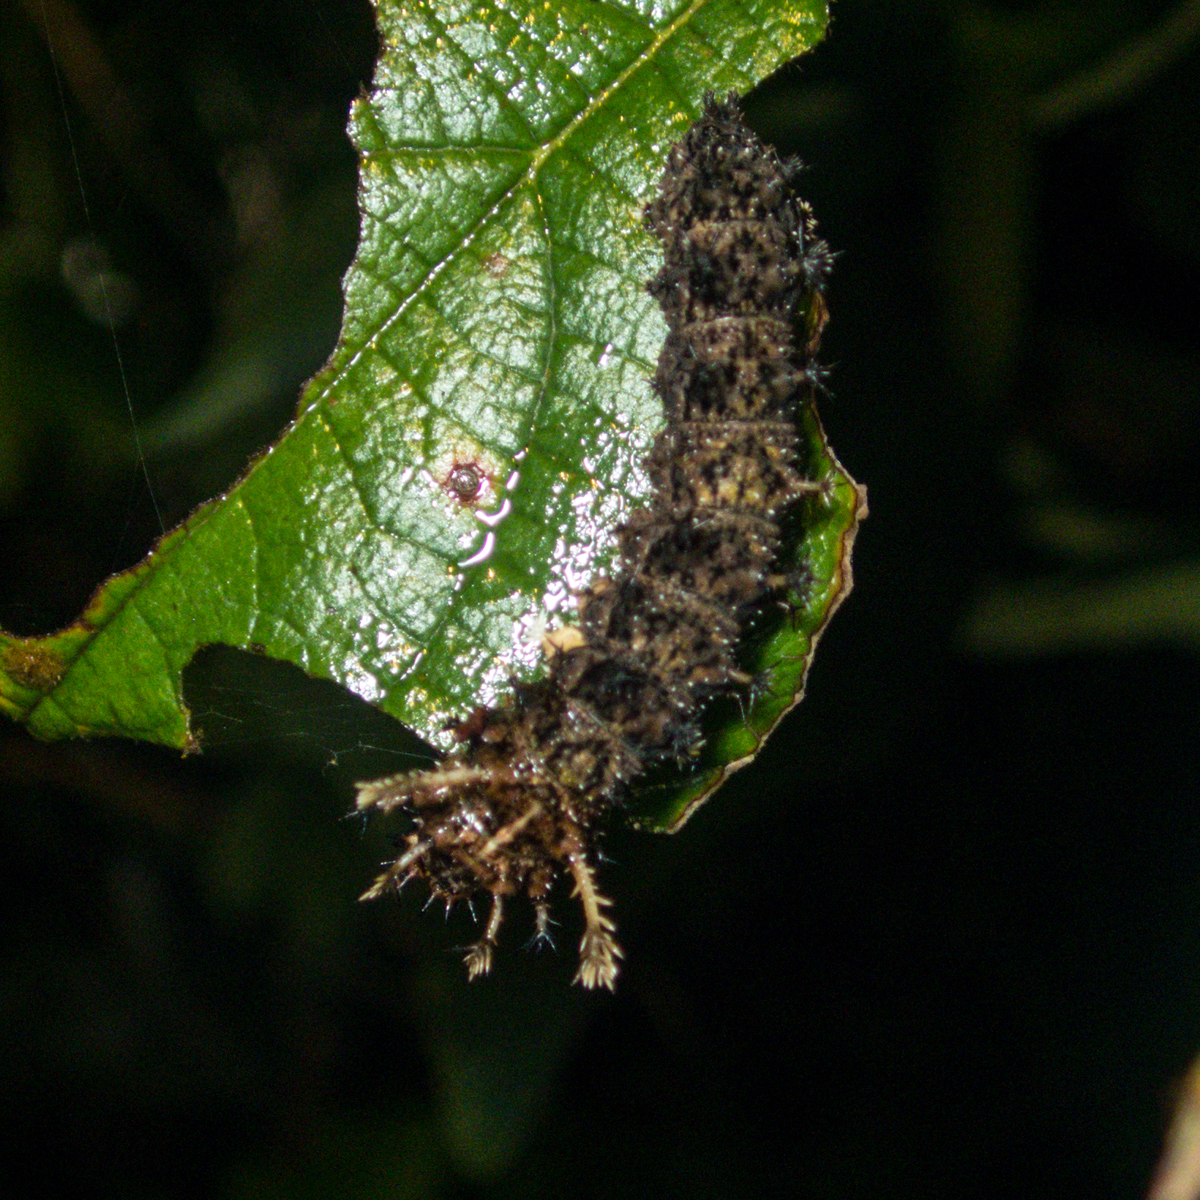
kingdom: Animalia
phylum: Arthropoda
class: Insecta
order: Lepidoptera
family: Nymphalidae
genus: Limenitis
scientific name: Limenitis Moduza procris
